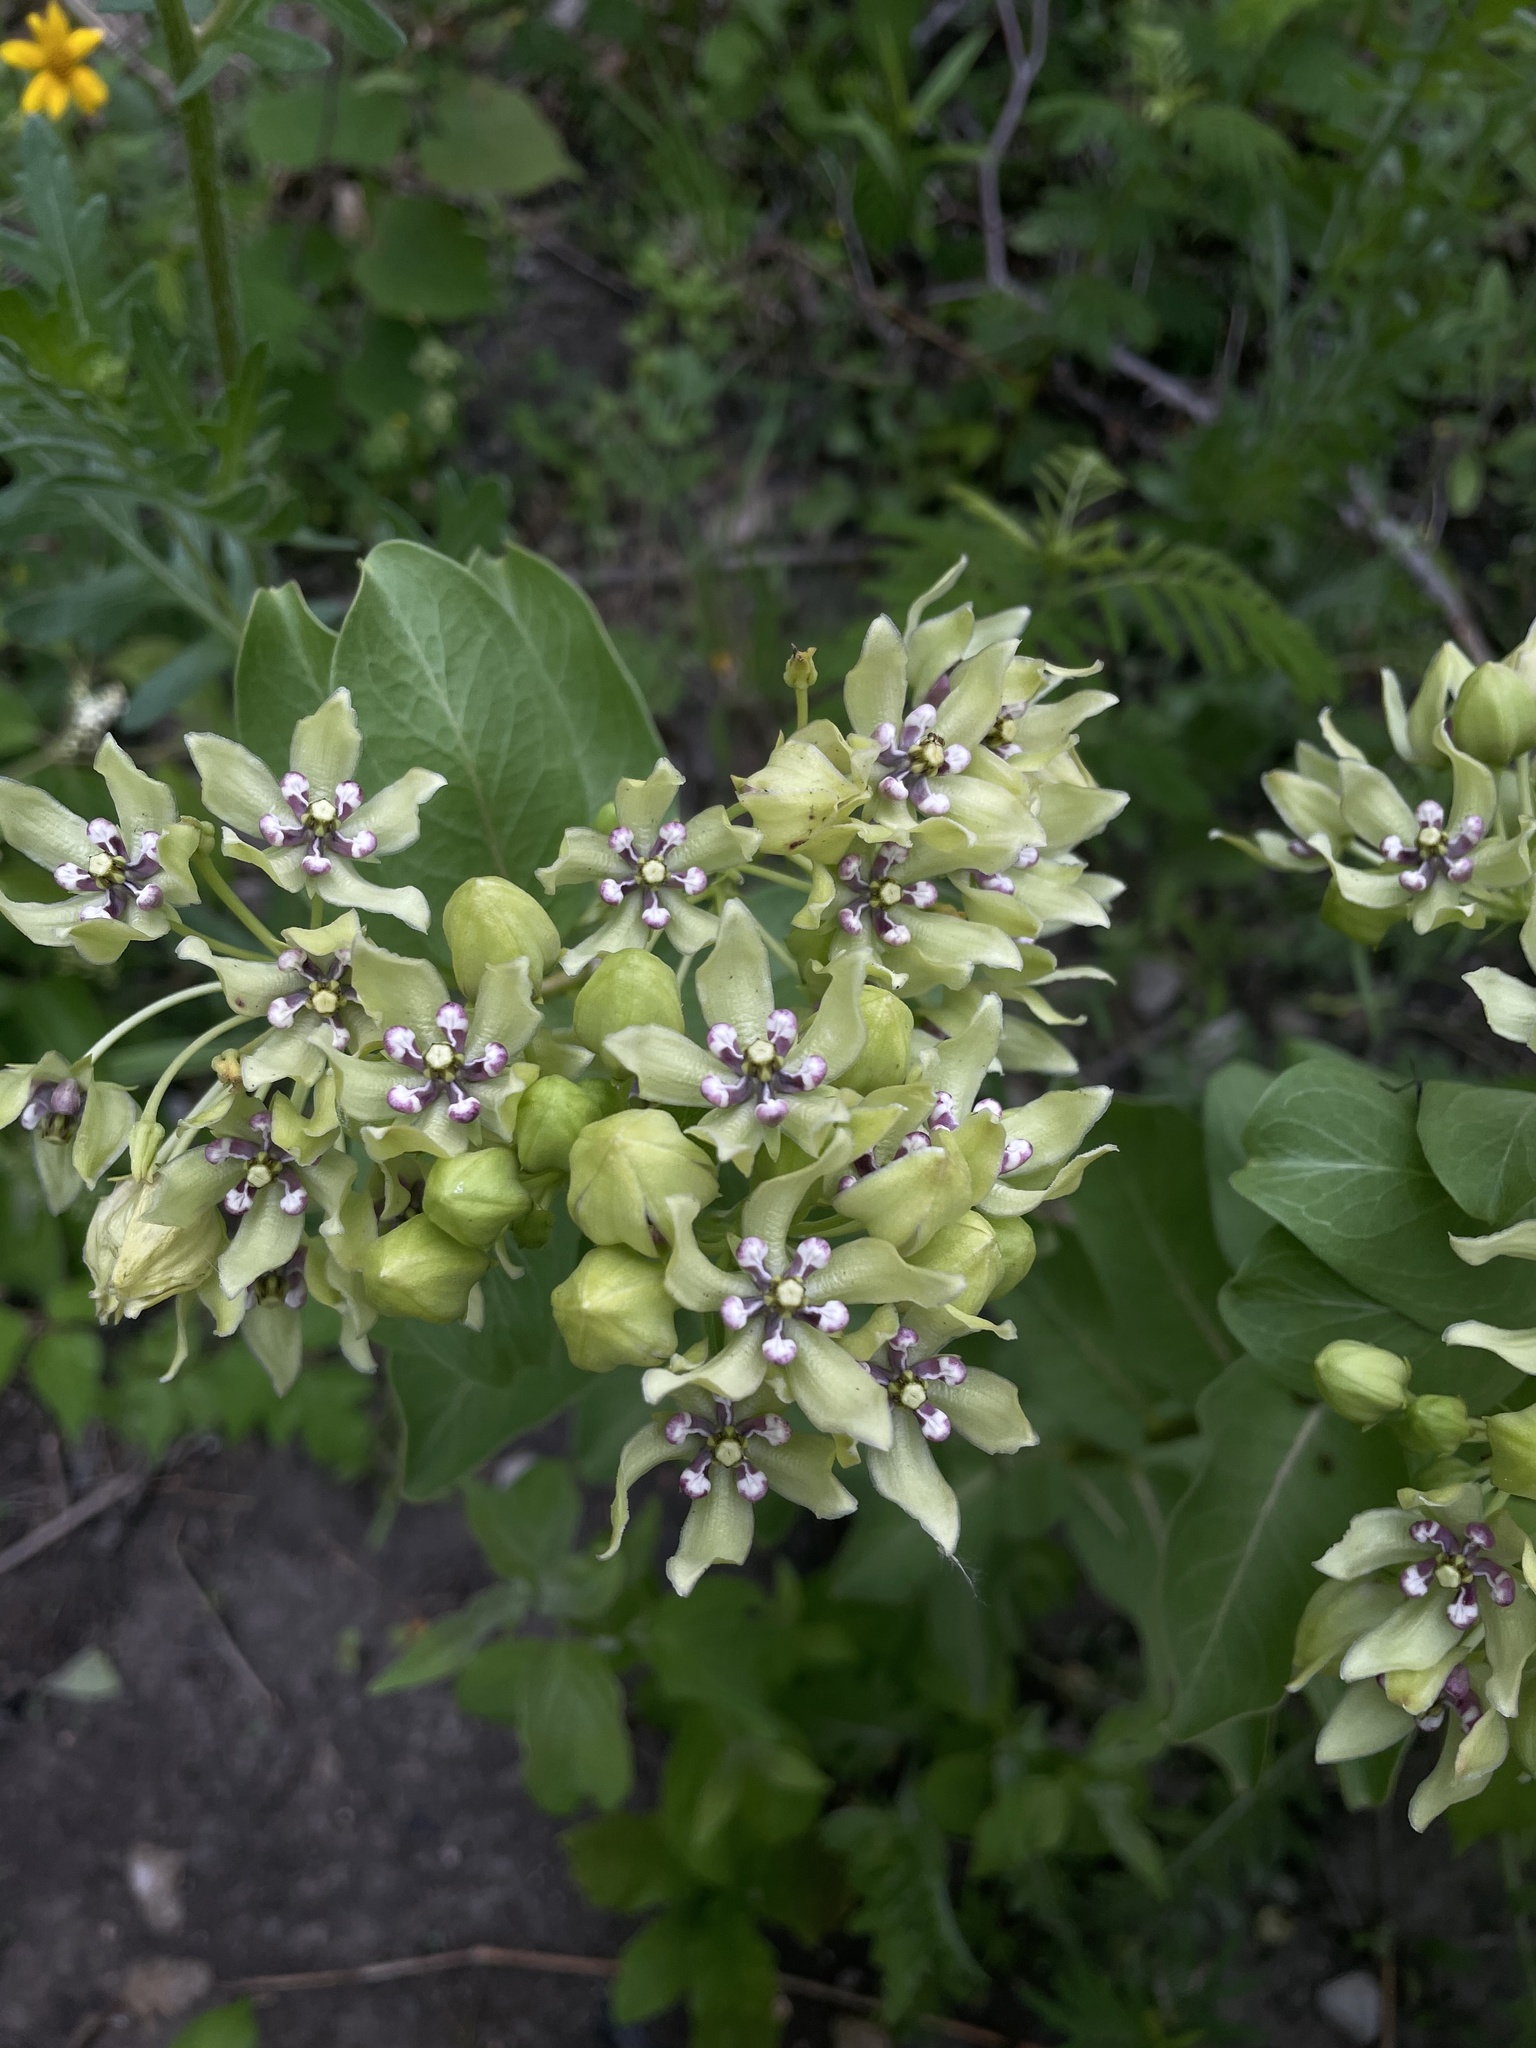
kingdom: Plantae
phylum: Tracheophyta
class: Magnoliopsida
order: Gentianales
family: Apocynaceae
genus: Asclepias
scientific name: Asclepias viridis
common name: Antelope-horns
